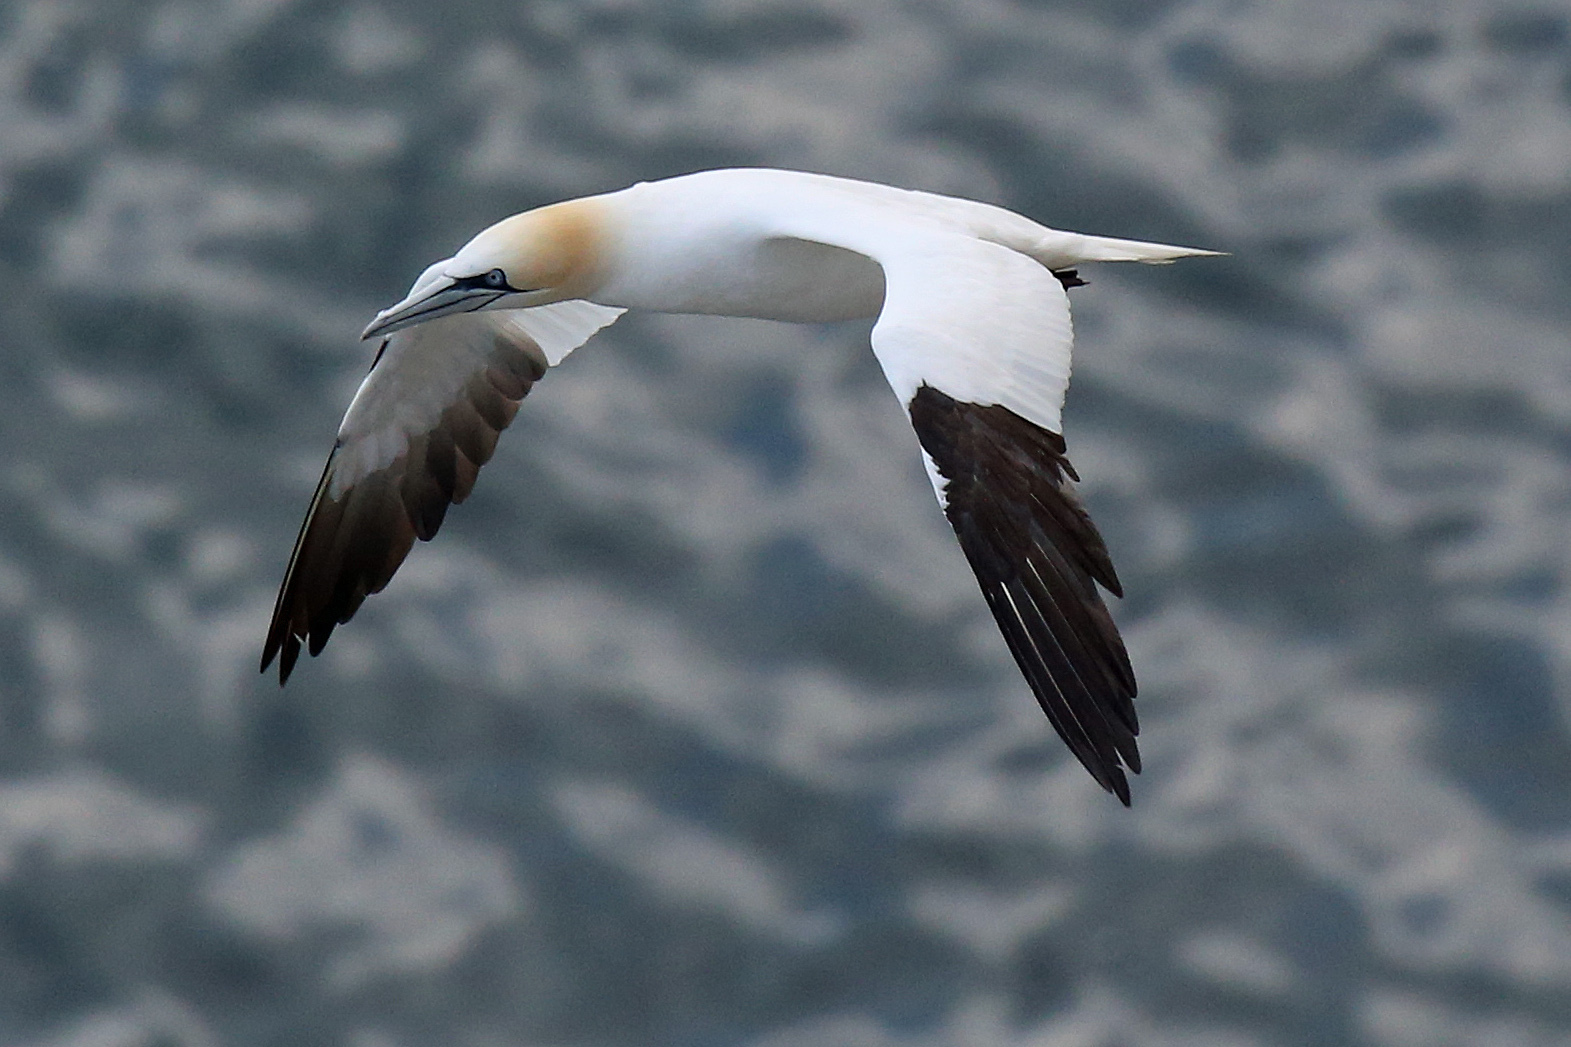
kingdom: Animalia
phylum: Chordata
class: Aves
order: Suliformes
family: Sulidae
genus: Morus
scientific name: Morus bassanus
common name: Northern gannet
